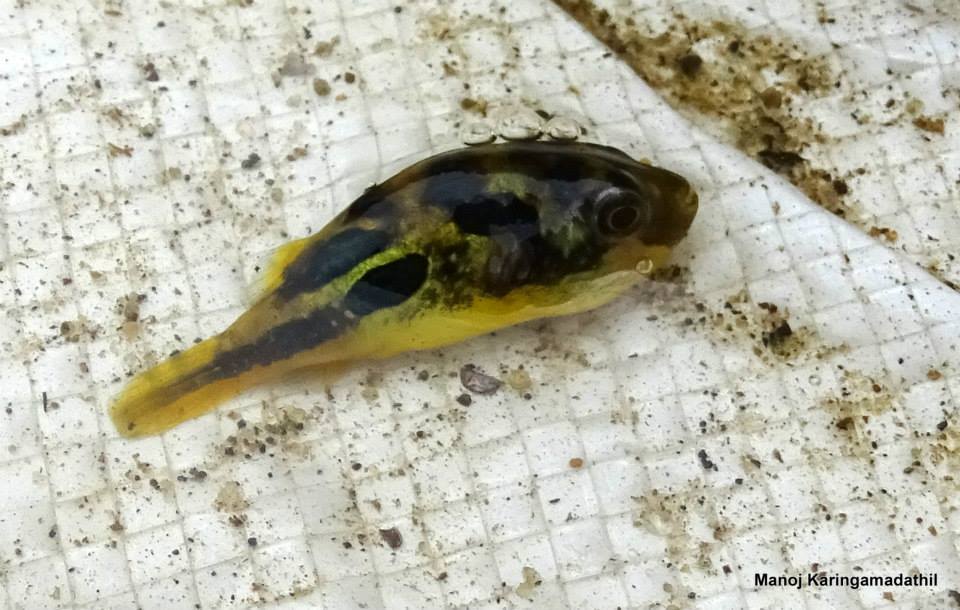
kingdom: Animalia
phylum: Chordata
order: Tetraodontiformes
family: Tetraodontidae
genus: Carinotetraodon
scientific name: Carinotetraodon travancoricus
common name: Dwarf indian puffer
